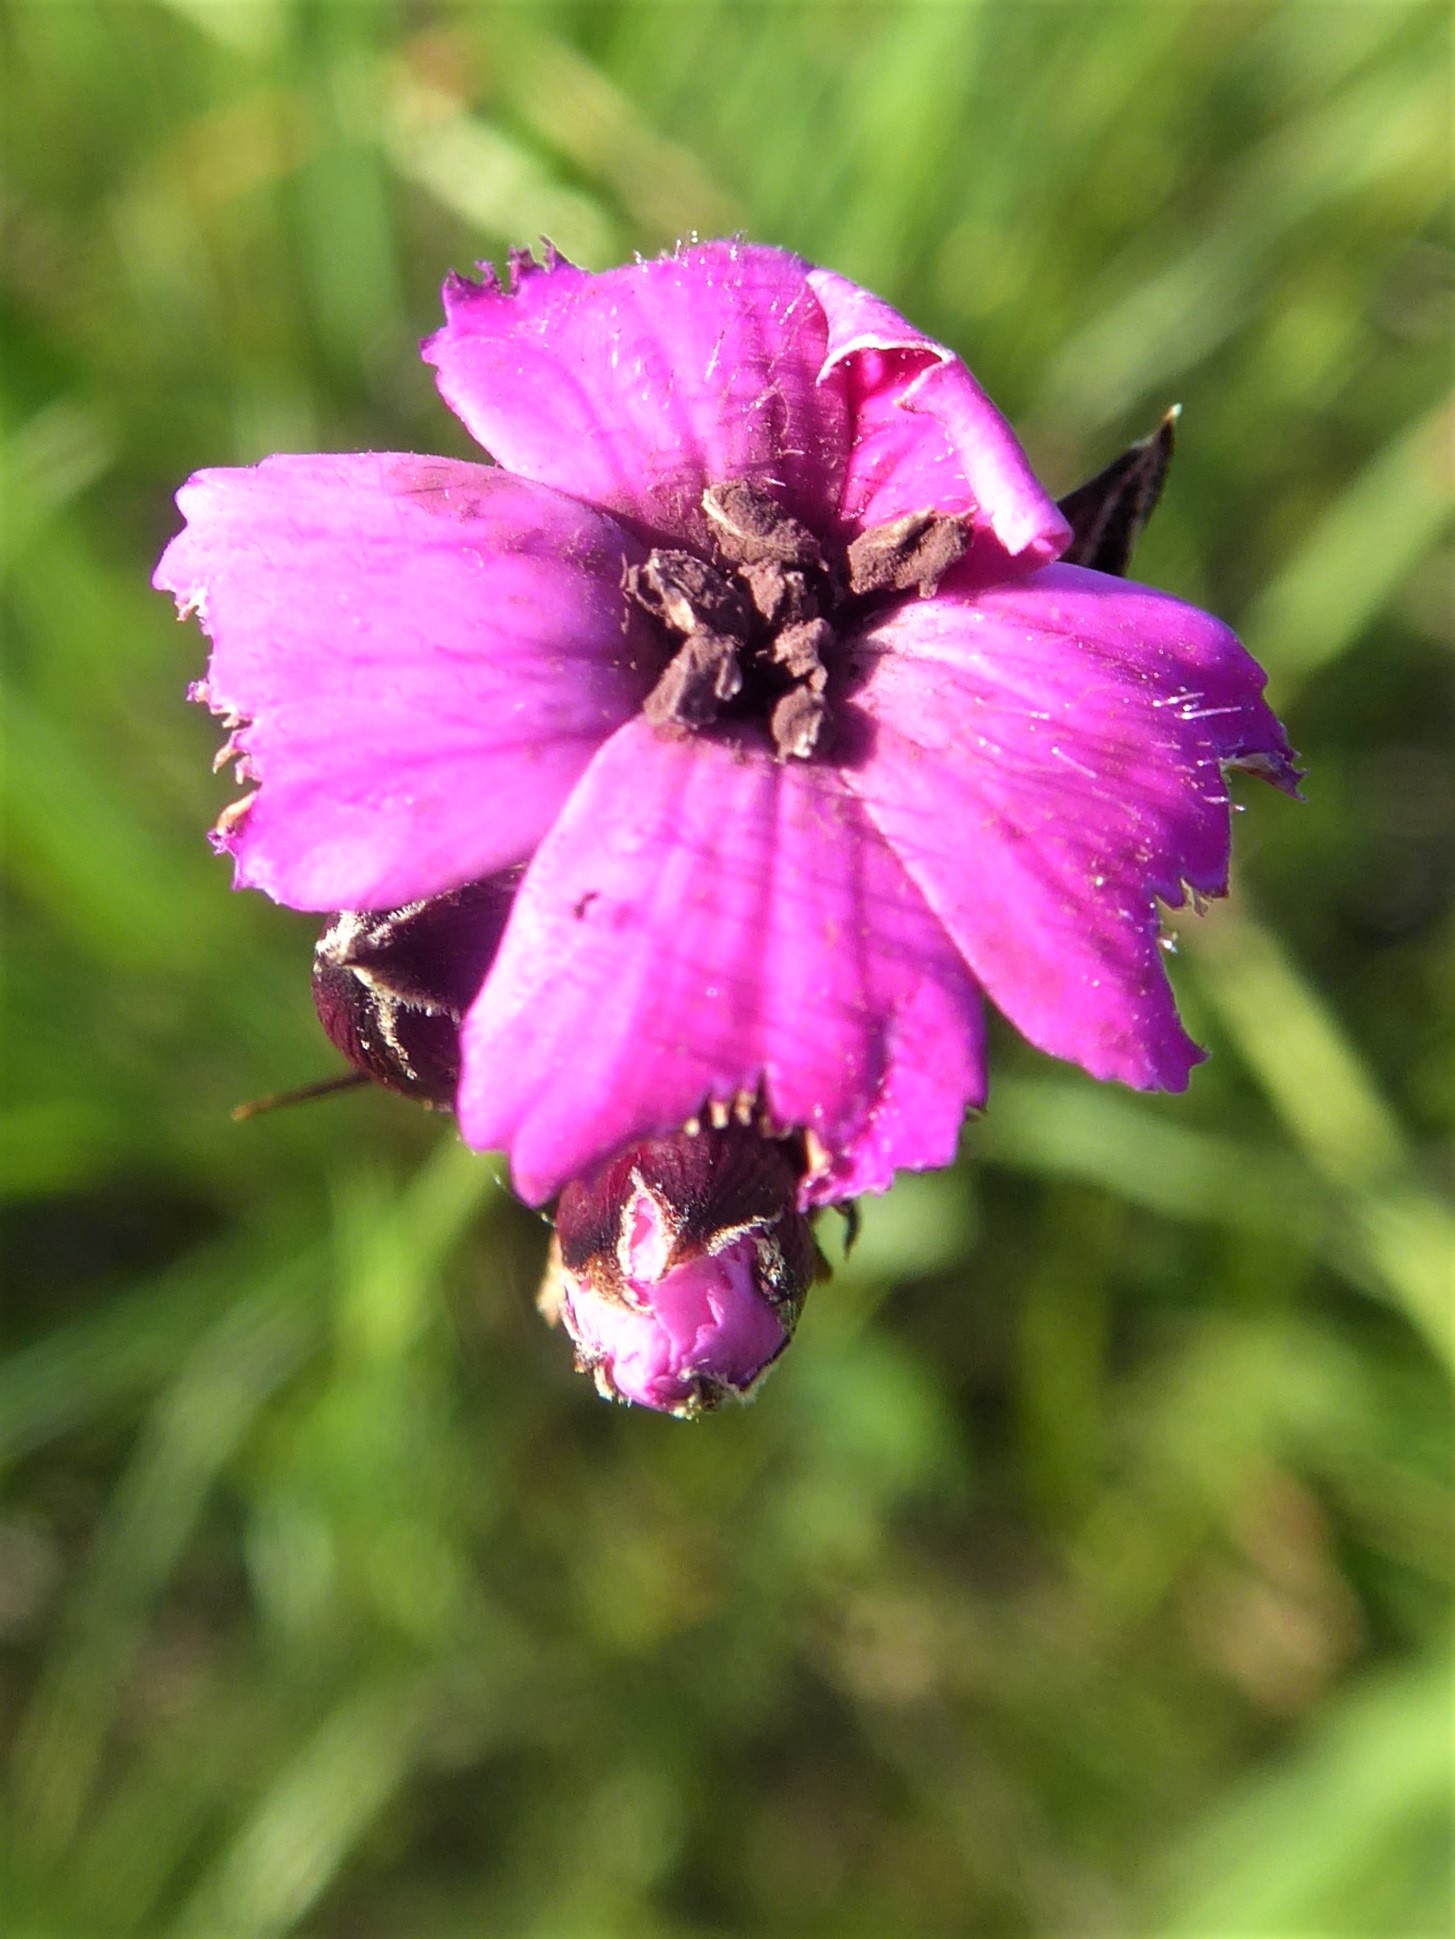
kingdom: Plantae
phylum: Tracheophyta
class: Magnoliopsida
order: Caryophyllales
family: Caryophyllaceae
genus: Dianthus
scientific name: Dianthus carthusianorum
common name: Carthusian pink
